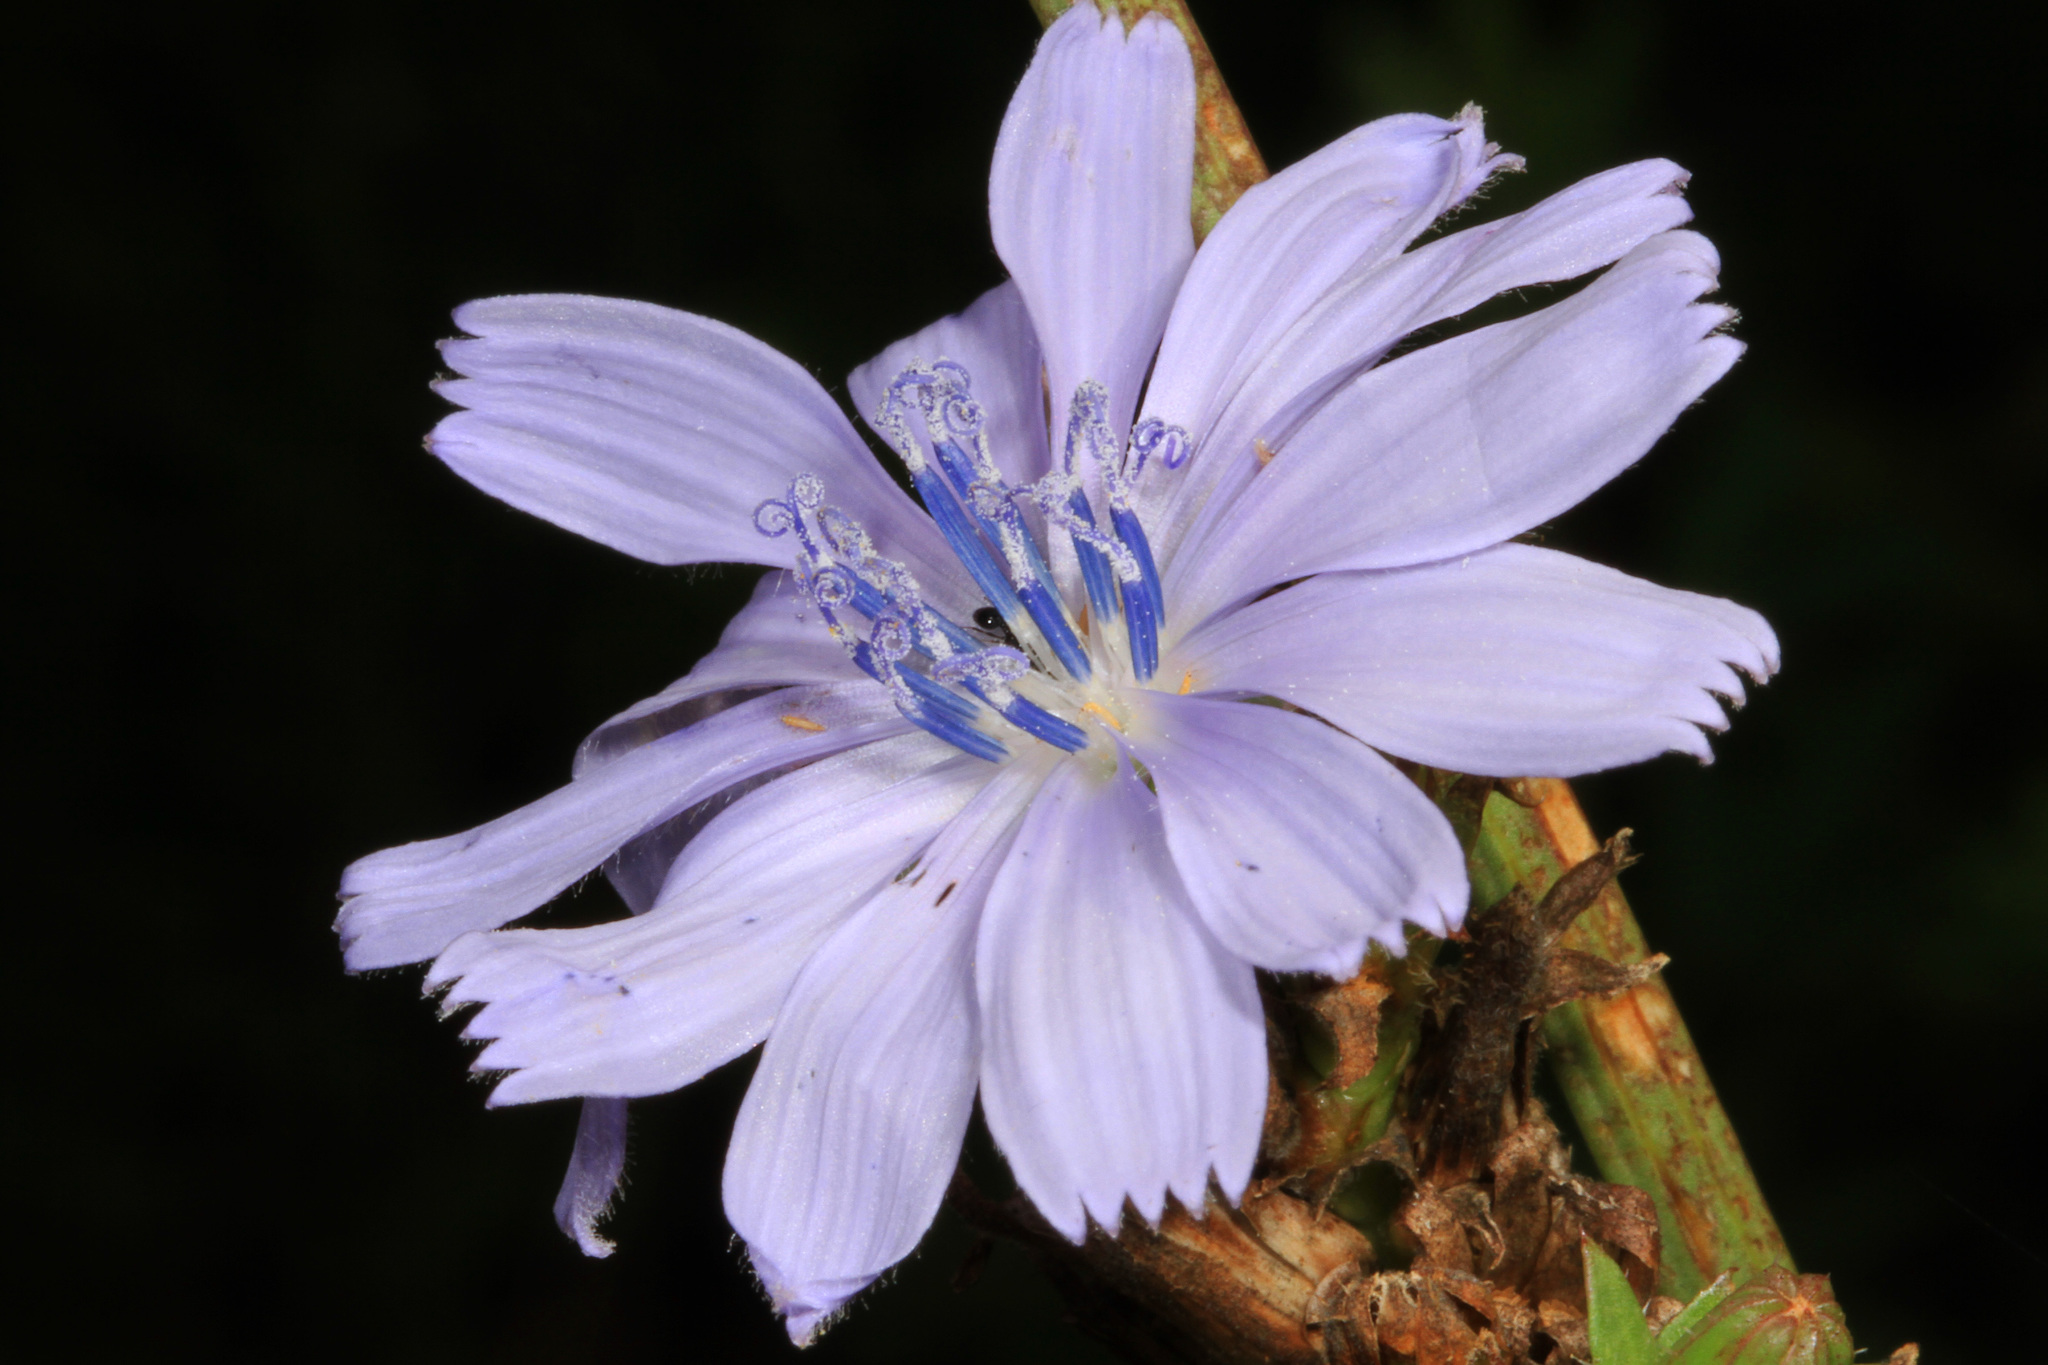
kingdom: Plantae
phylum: Tracheophyta
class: Magnoliopsida
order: Asterales
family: Asteraceae
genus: Cichorium
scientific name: Cichorium intybus
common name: Chicory
